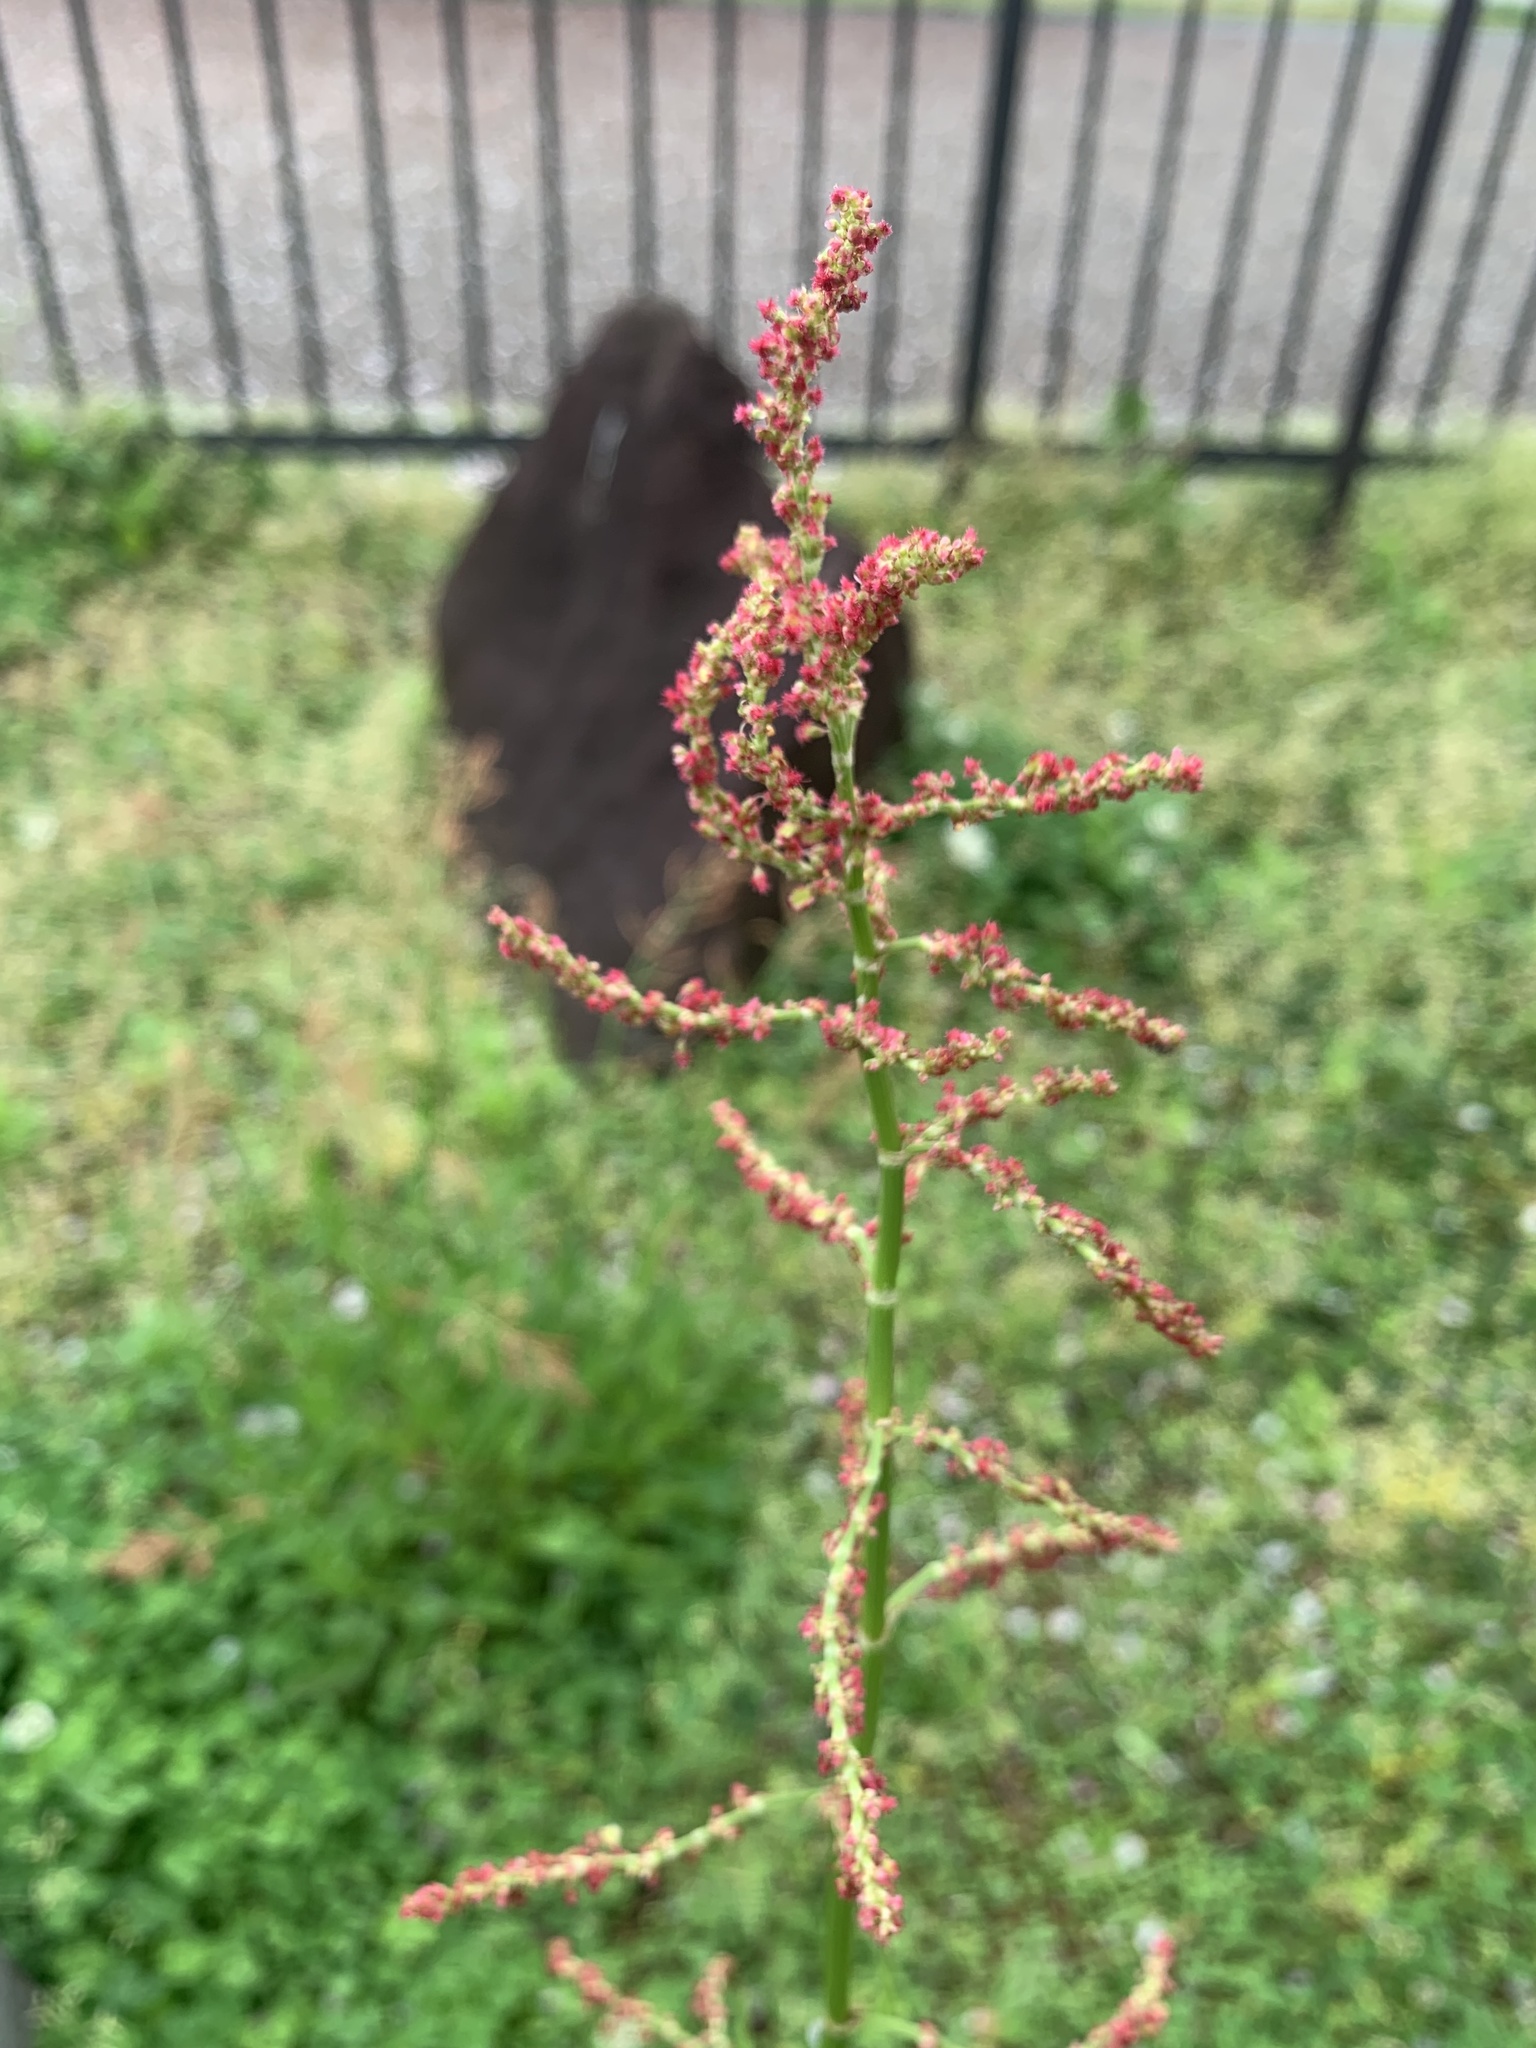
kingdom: Plantae
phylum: Tracheophyta
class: Magnoliopsida
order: Caryophyllales
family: Polygonaceae
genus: Rumex
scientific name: Rumex acetosa
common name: Garden sorrel
